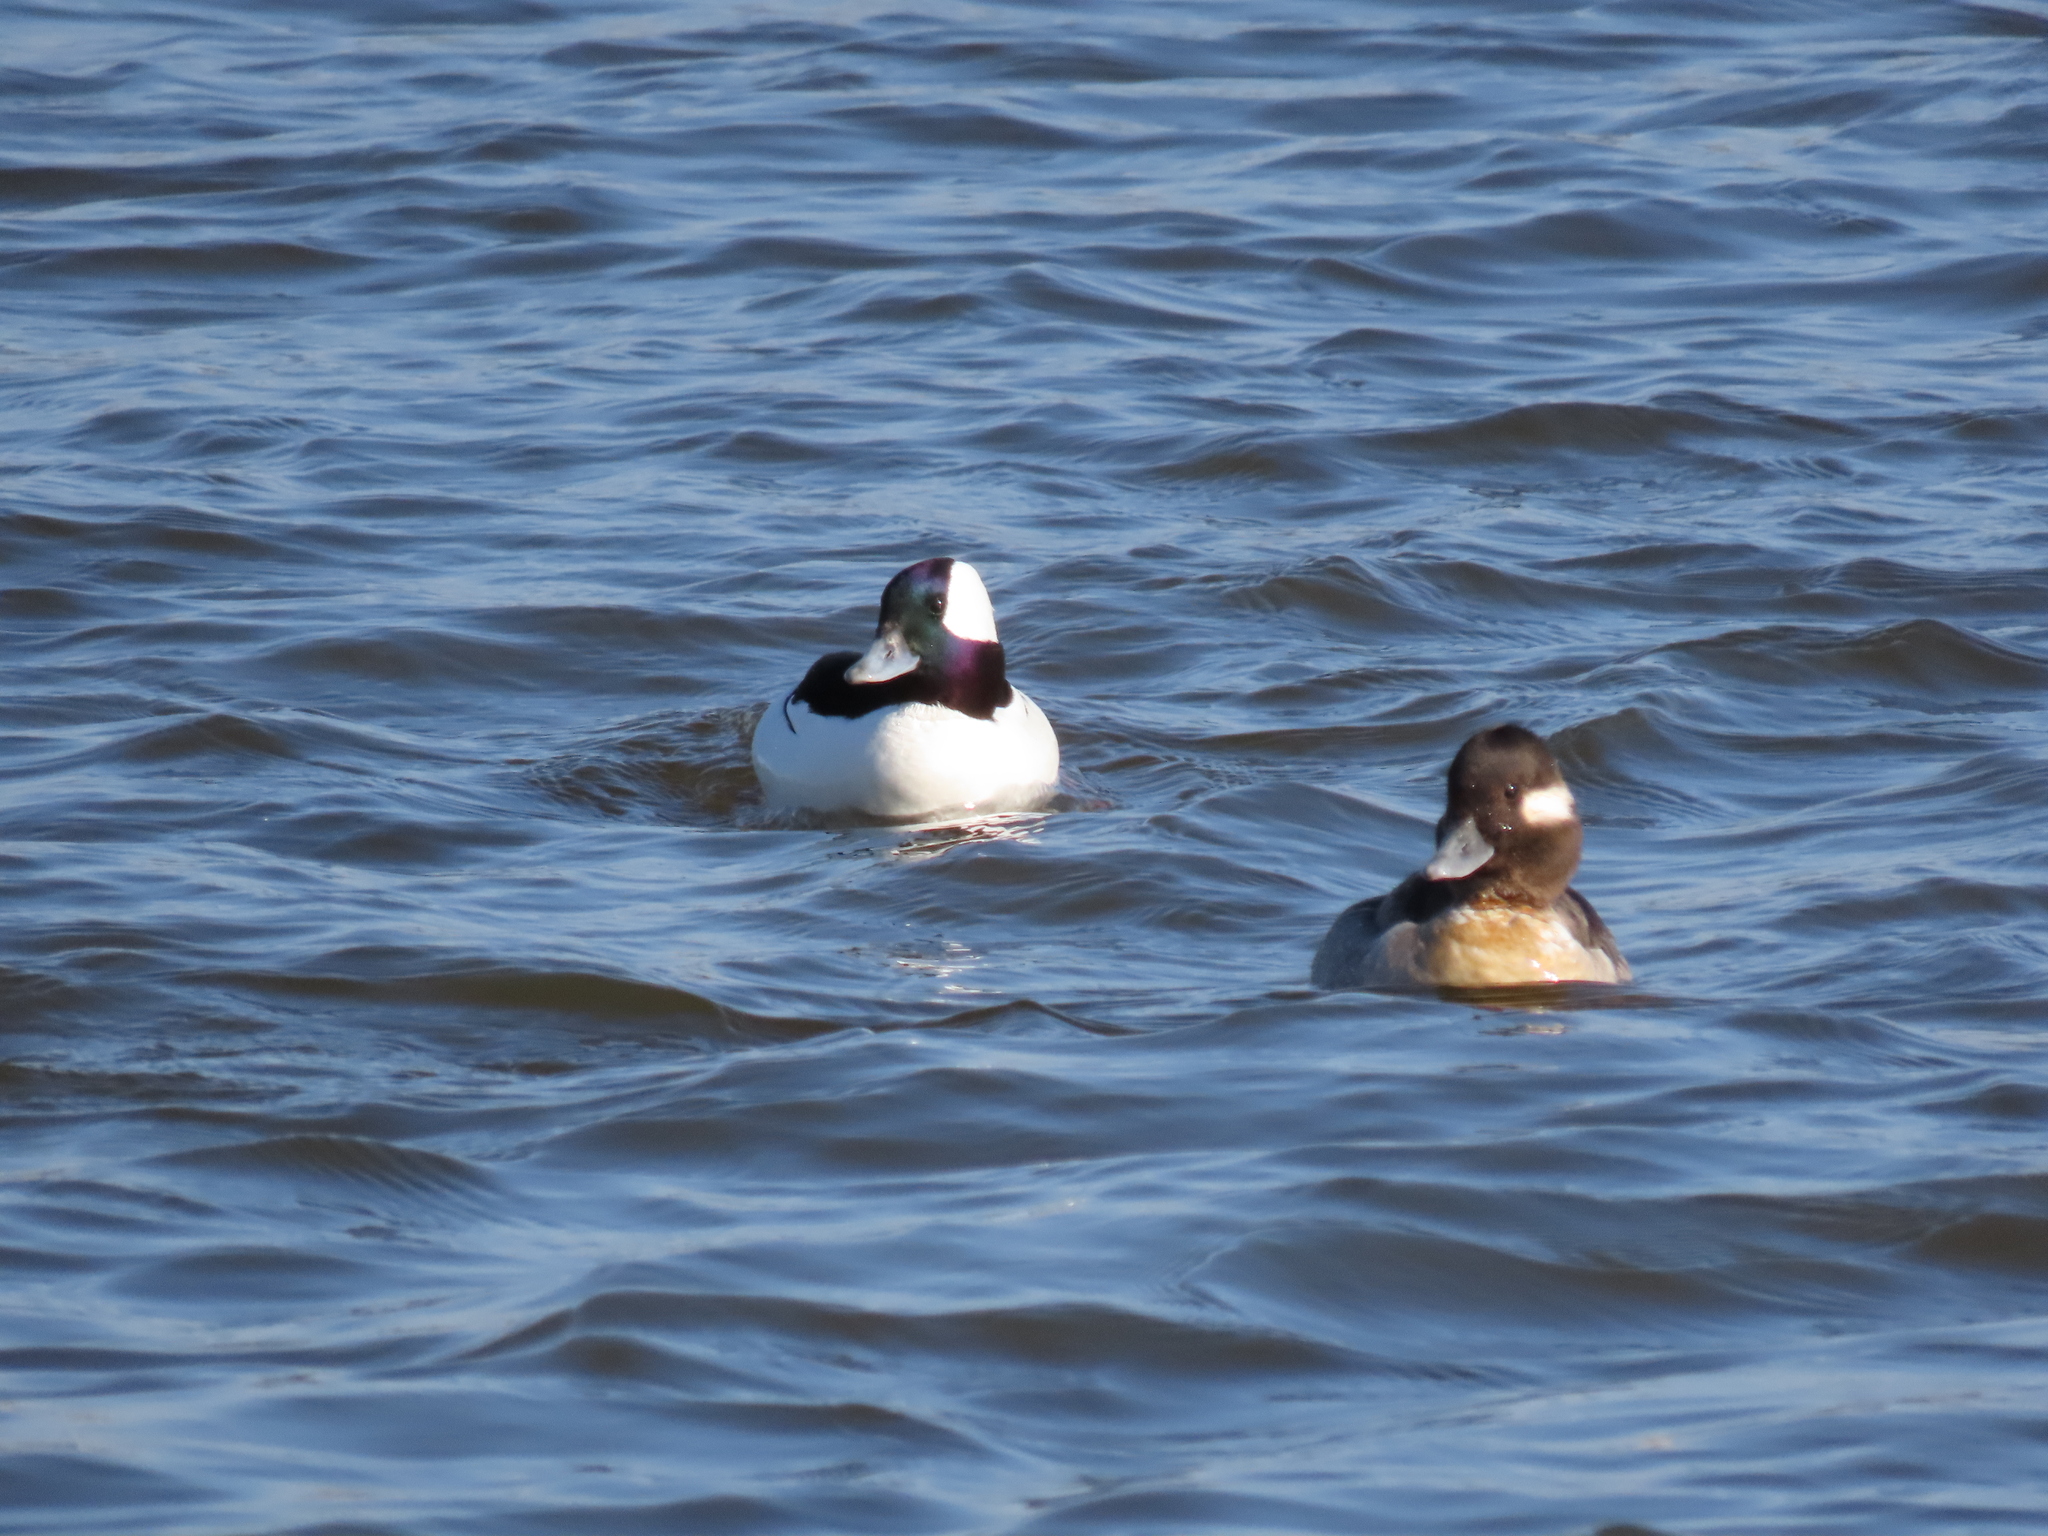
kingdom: Animalia
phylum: Chordata
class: Aves
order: Anseriformes
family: Anatidae
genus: Bucephala
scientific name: Bucephala albeola
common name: Bufflehead
